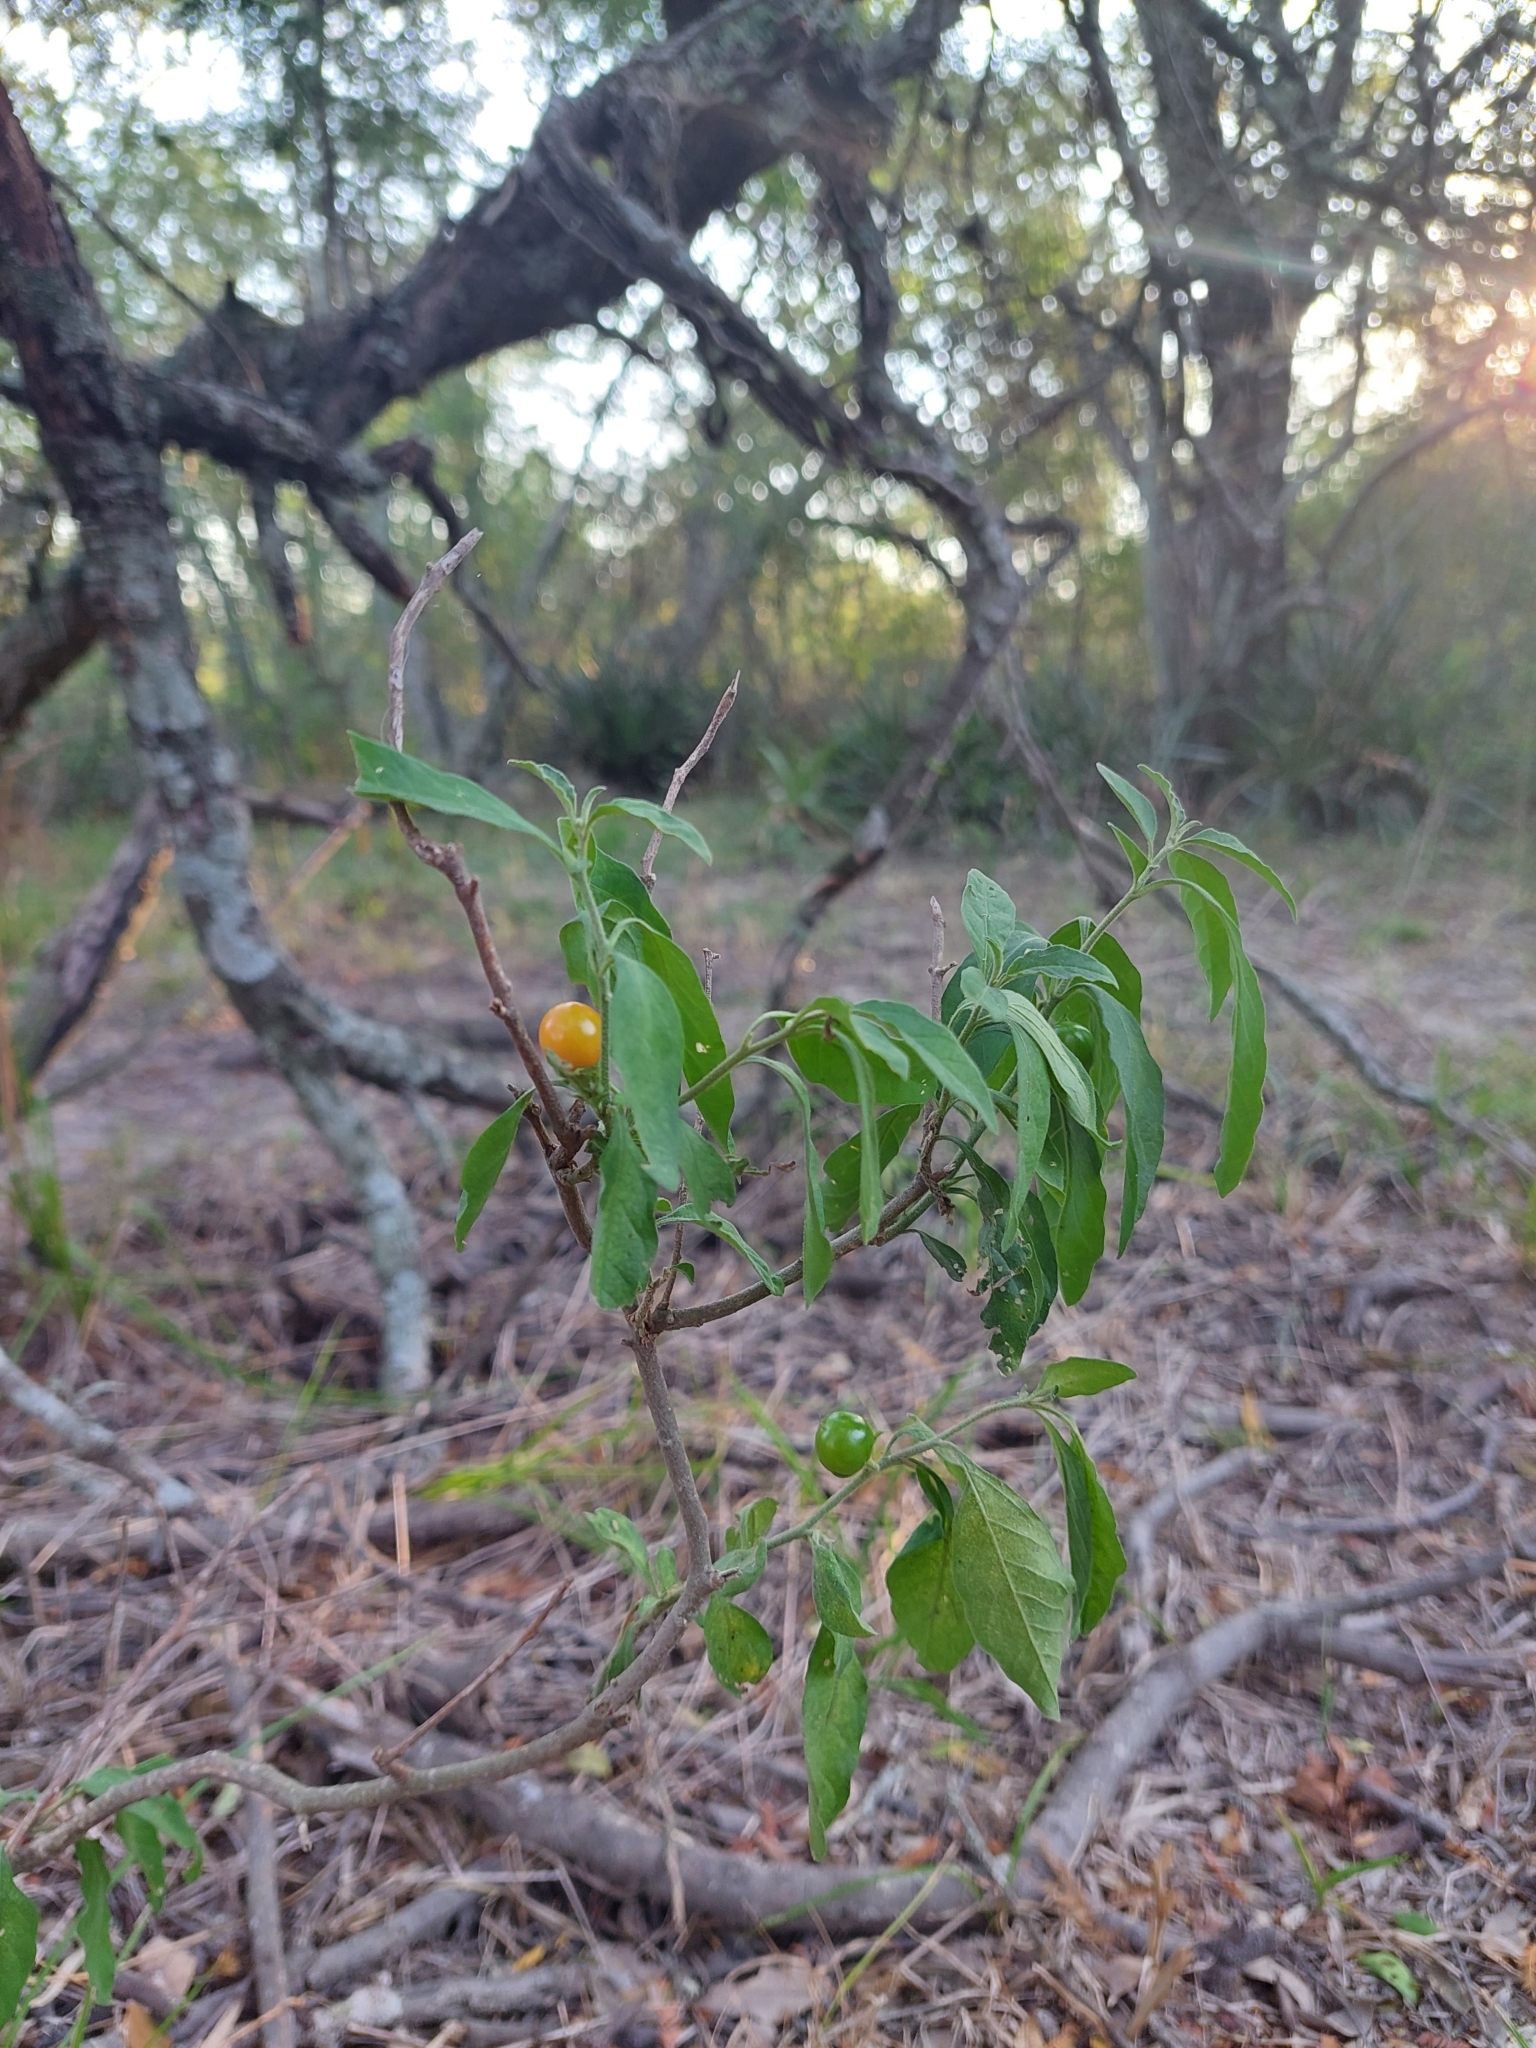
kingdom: Plantae
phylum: Tracheophyta
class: Magnoliopsida
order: Solanales
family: Solanaceae
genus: Solanum
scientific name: Solanum pseudocapsicum
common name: Jerusalem cherry
